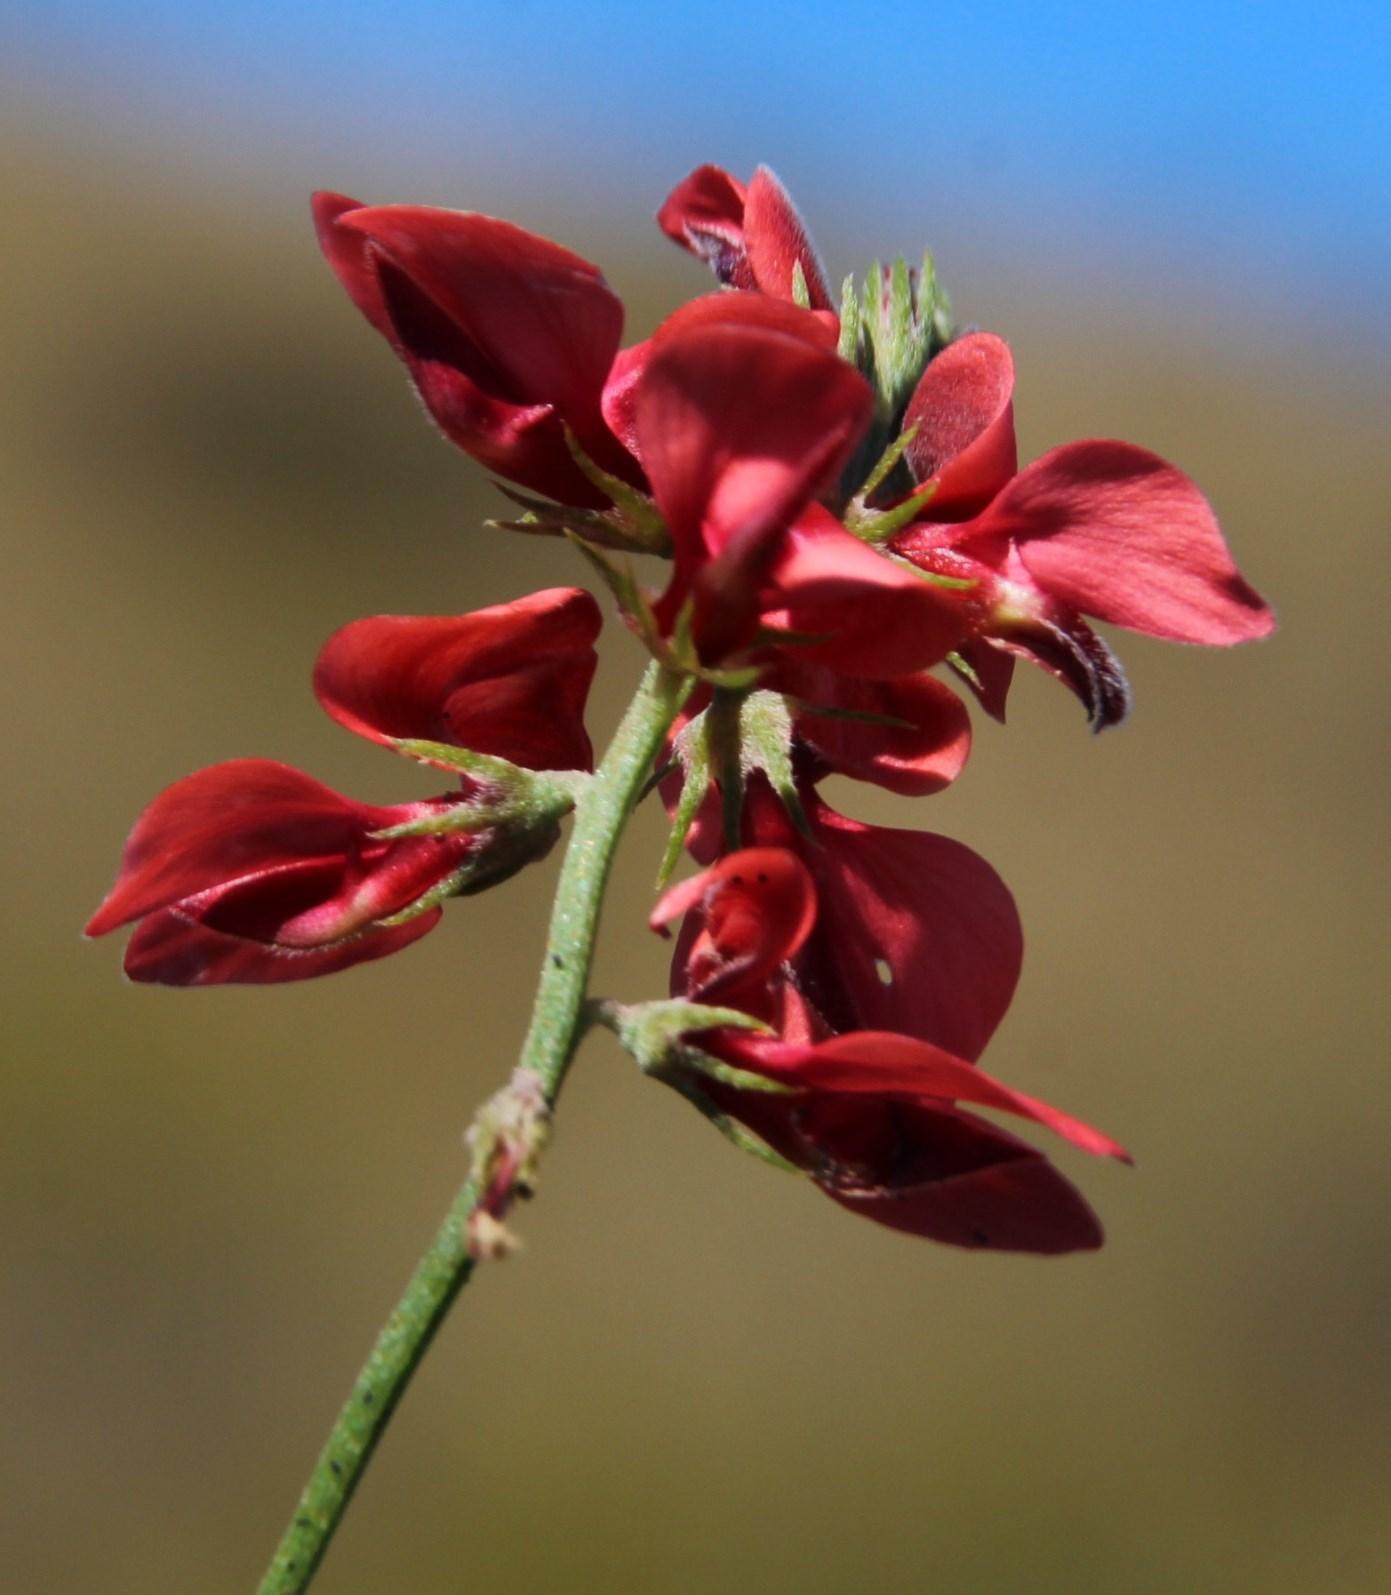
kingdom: Plantae
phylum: Tracheophyta
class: Magnoliopsida
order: Fabales
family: Fabaceae
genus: Indigofera
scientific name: Indigofera heterophylla
